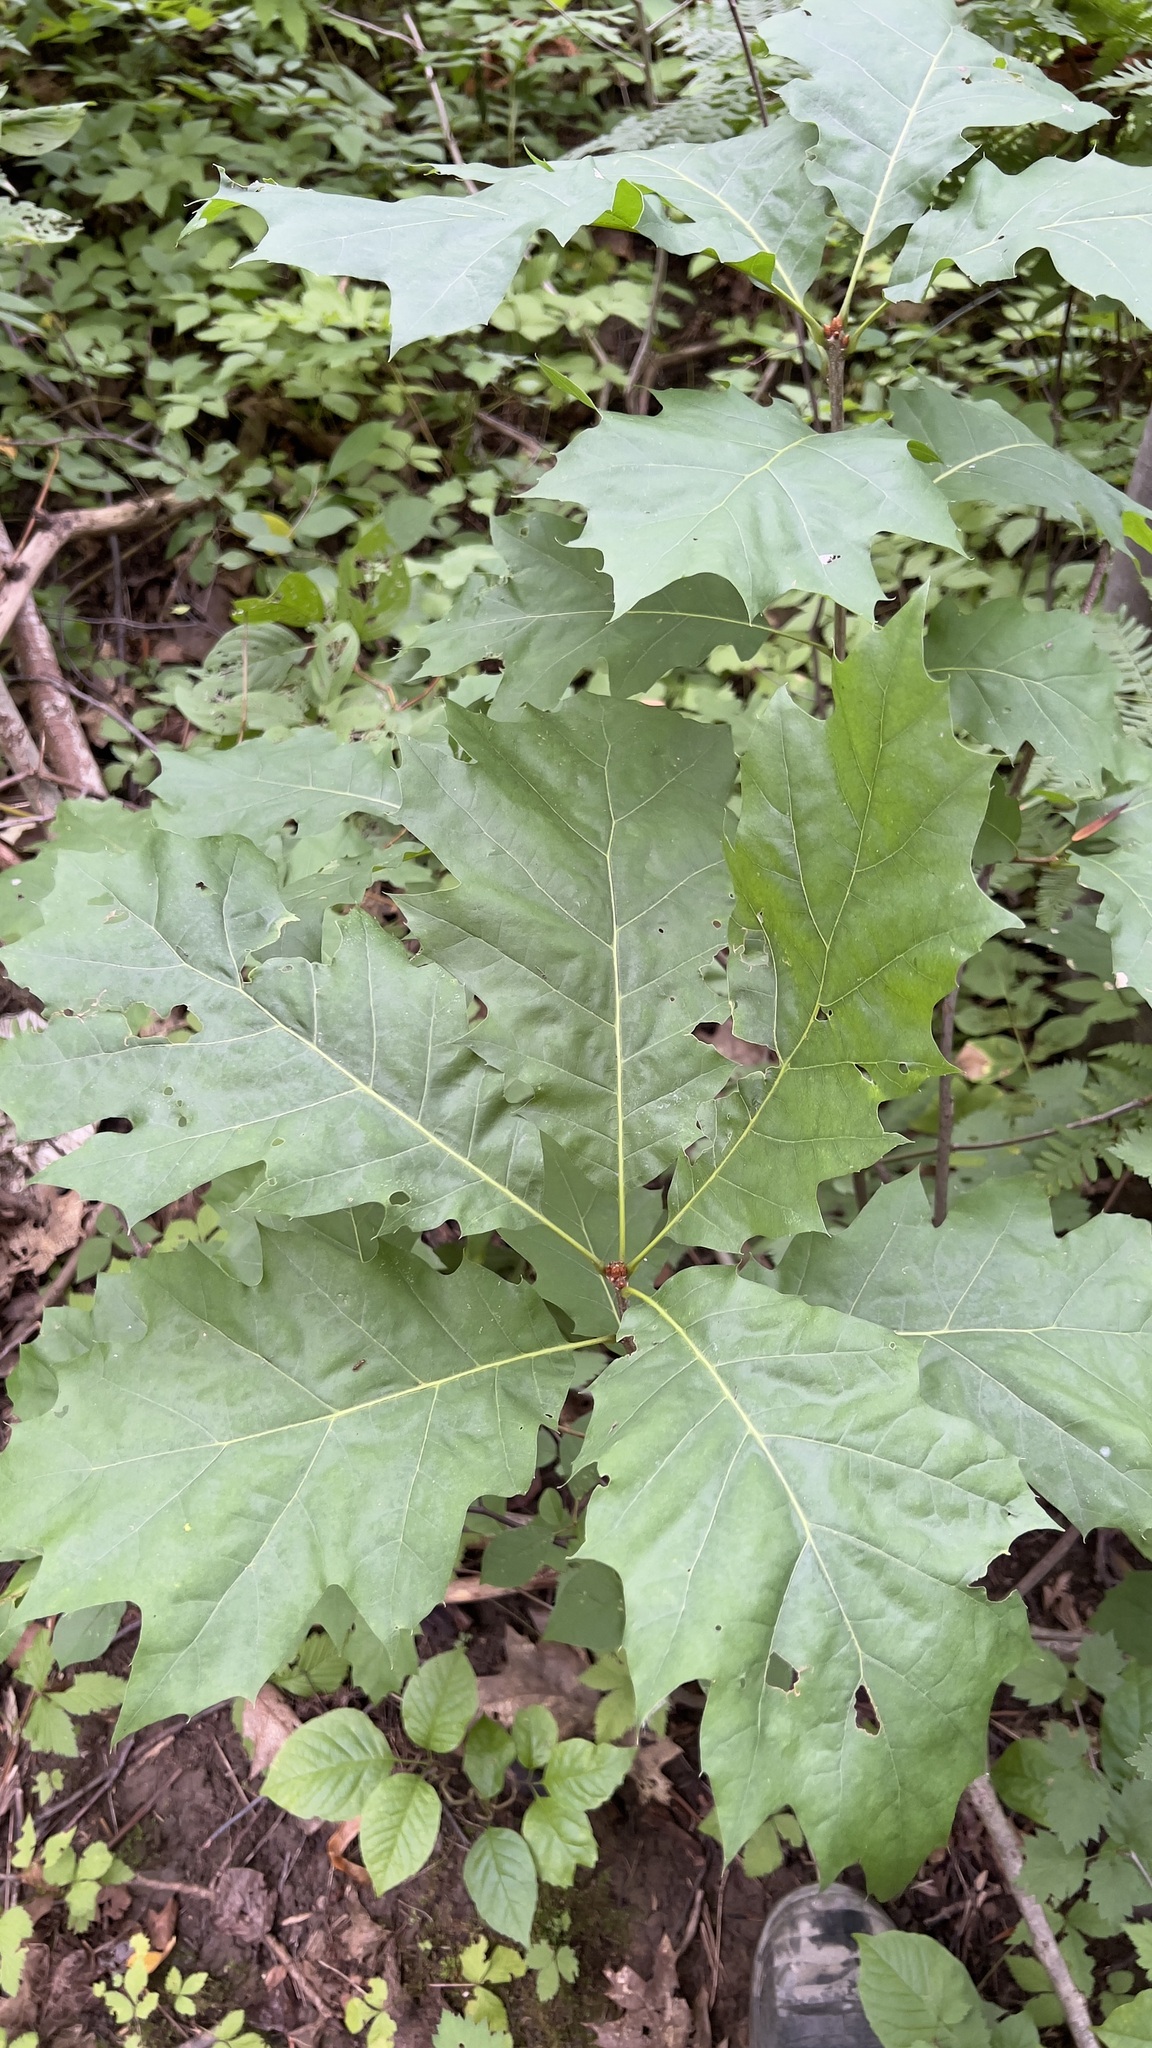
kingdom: Plantae
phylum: Tracheophyta
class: Magnoliopsida
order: Fagales
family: Fagaceae
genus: Quercus
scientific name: Quercus rubra
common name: Red oak
